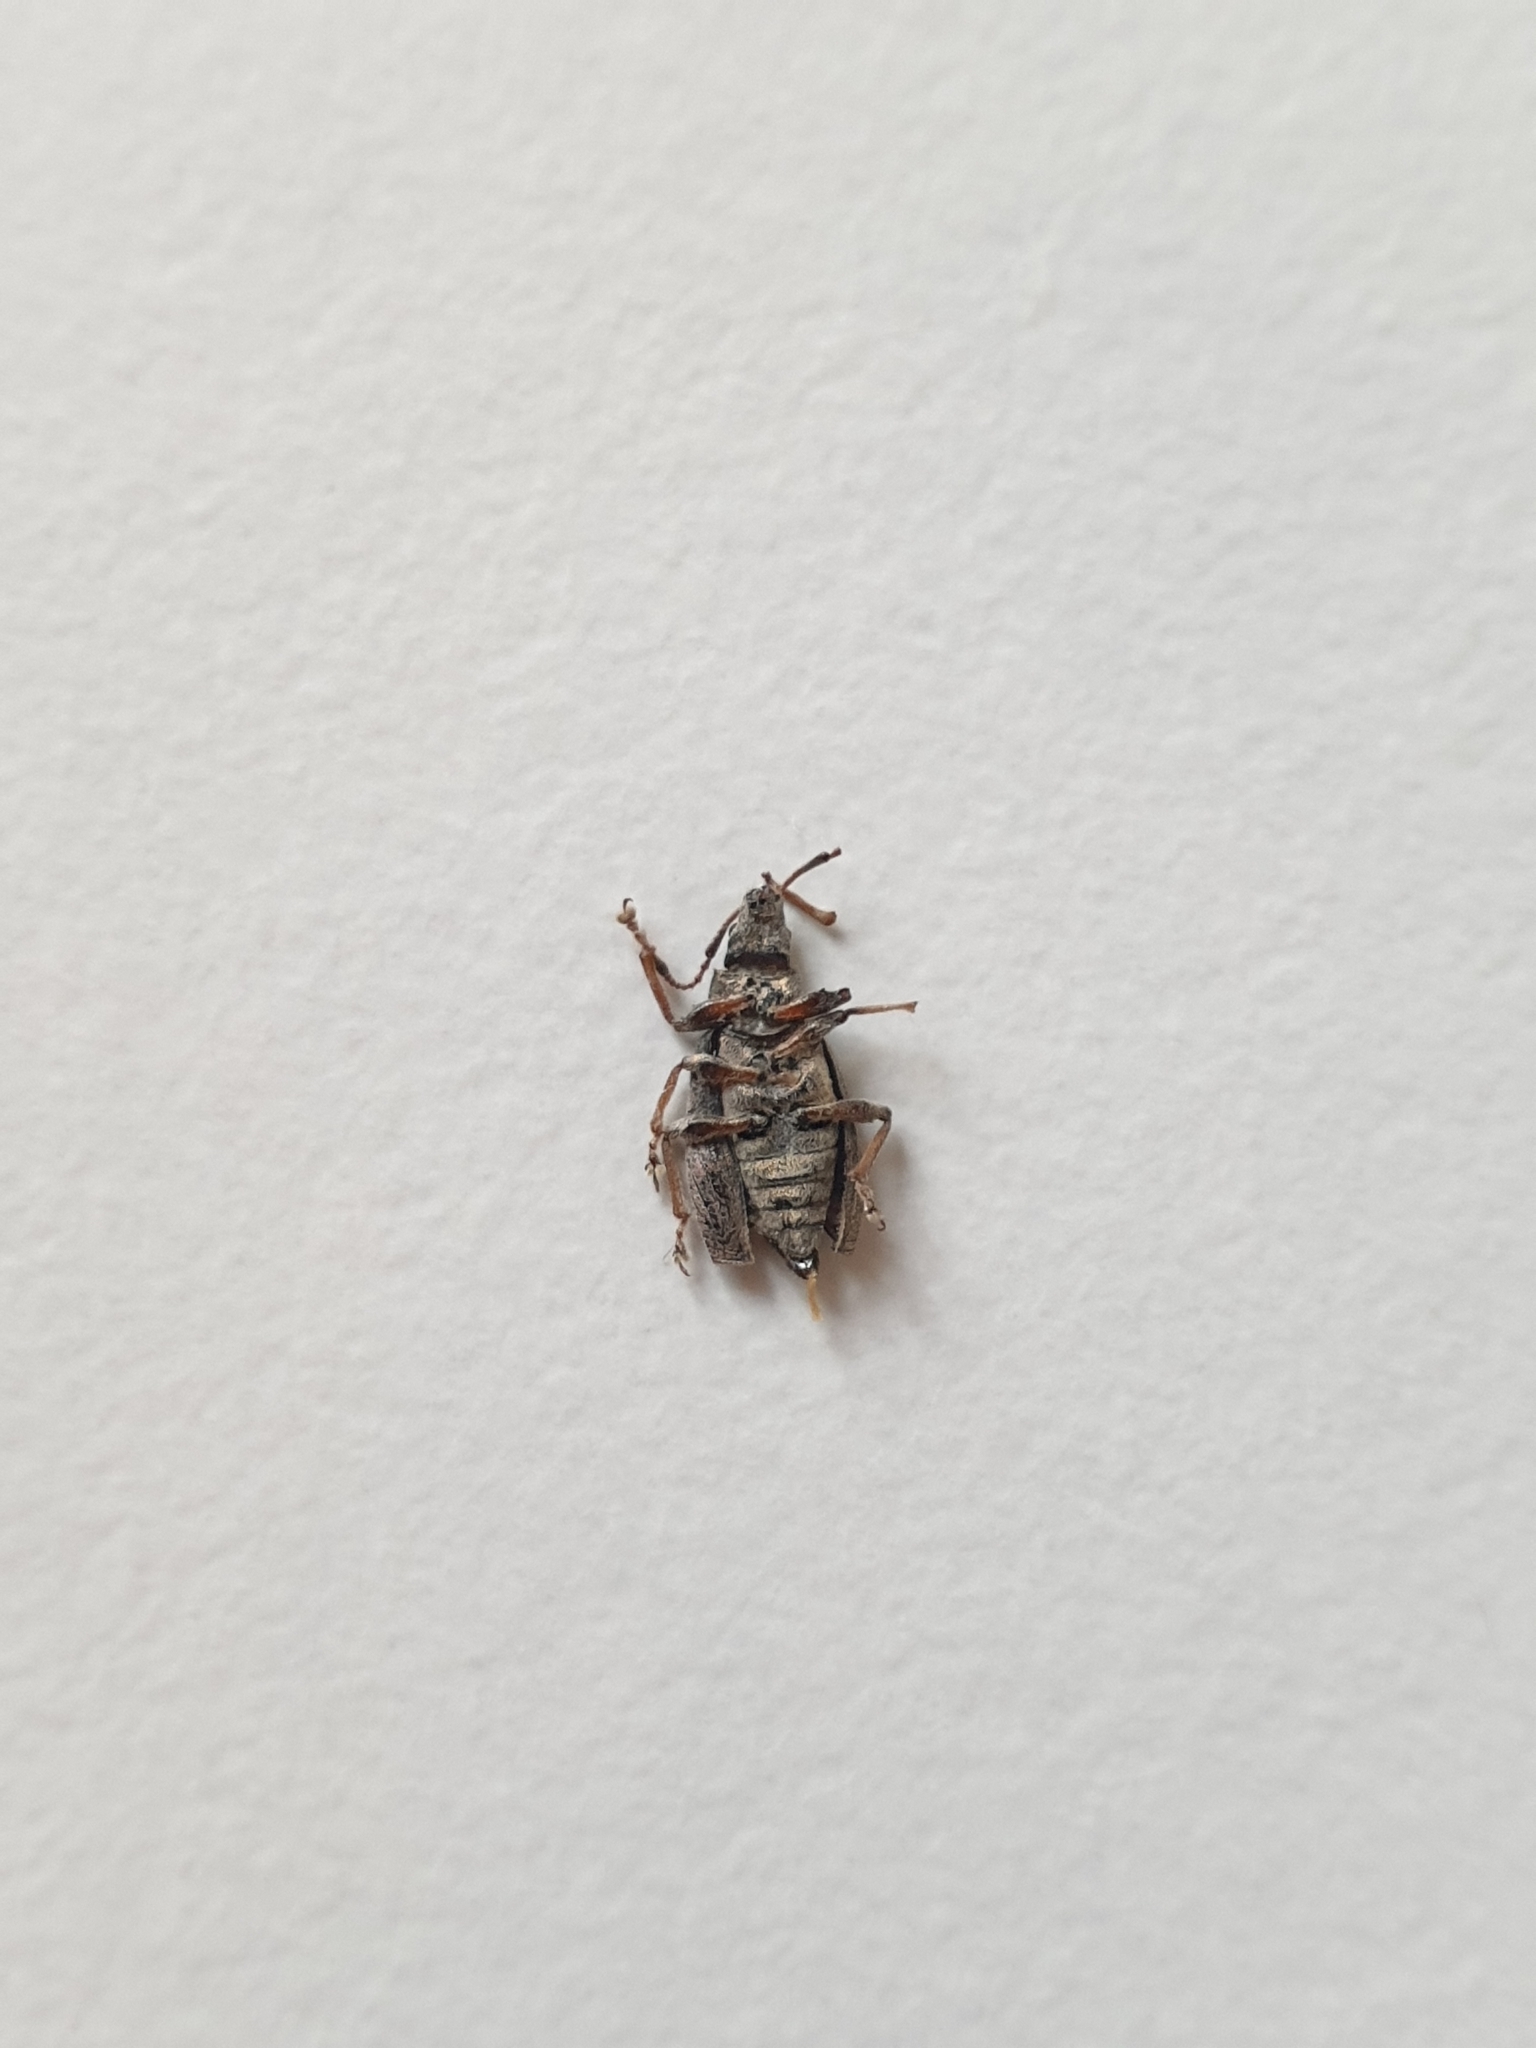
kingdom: Animalia
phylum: Arthropoda
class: Insecta
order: Coleoptera
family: Curculionidae
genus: Phyllobius
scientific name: Phyllobius pyri
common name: Common leaf weevil
